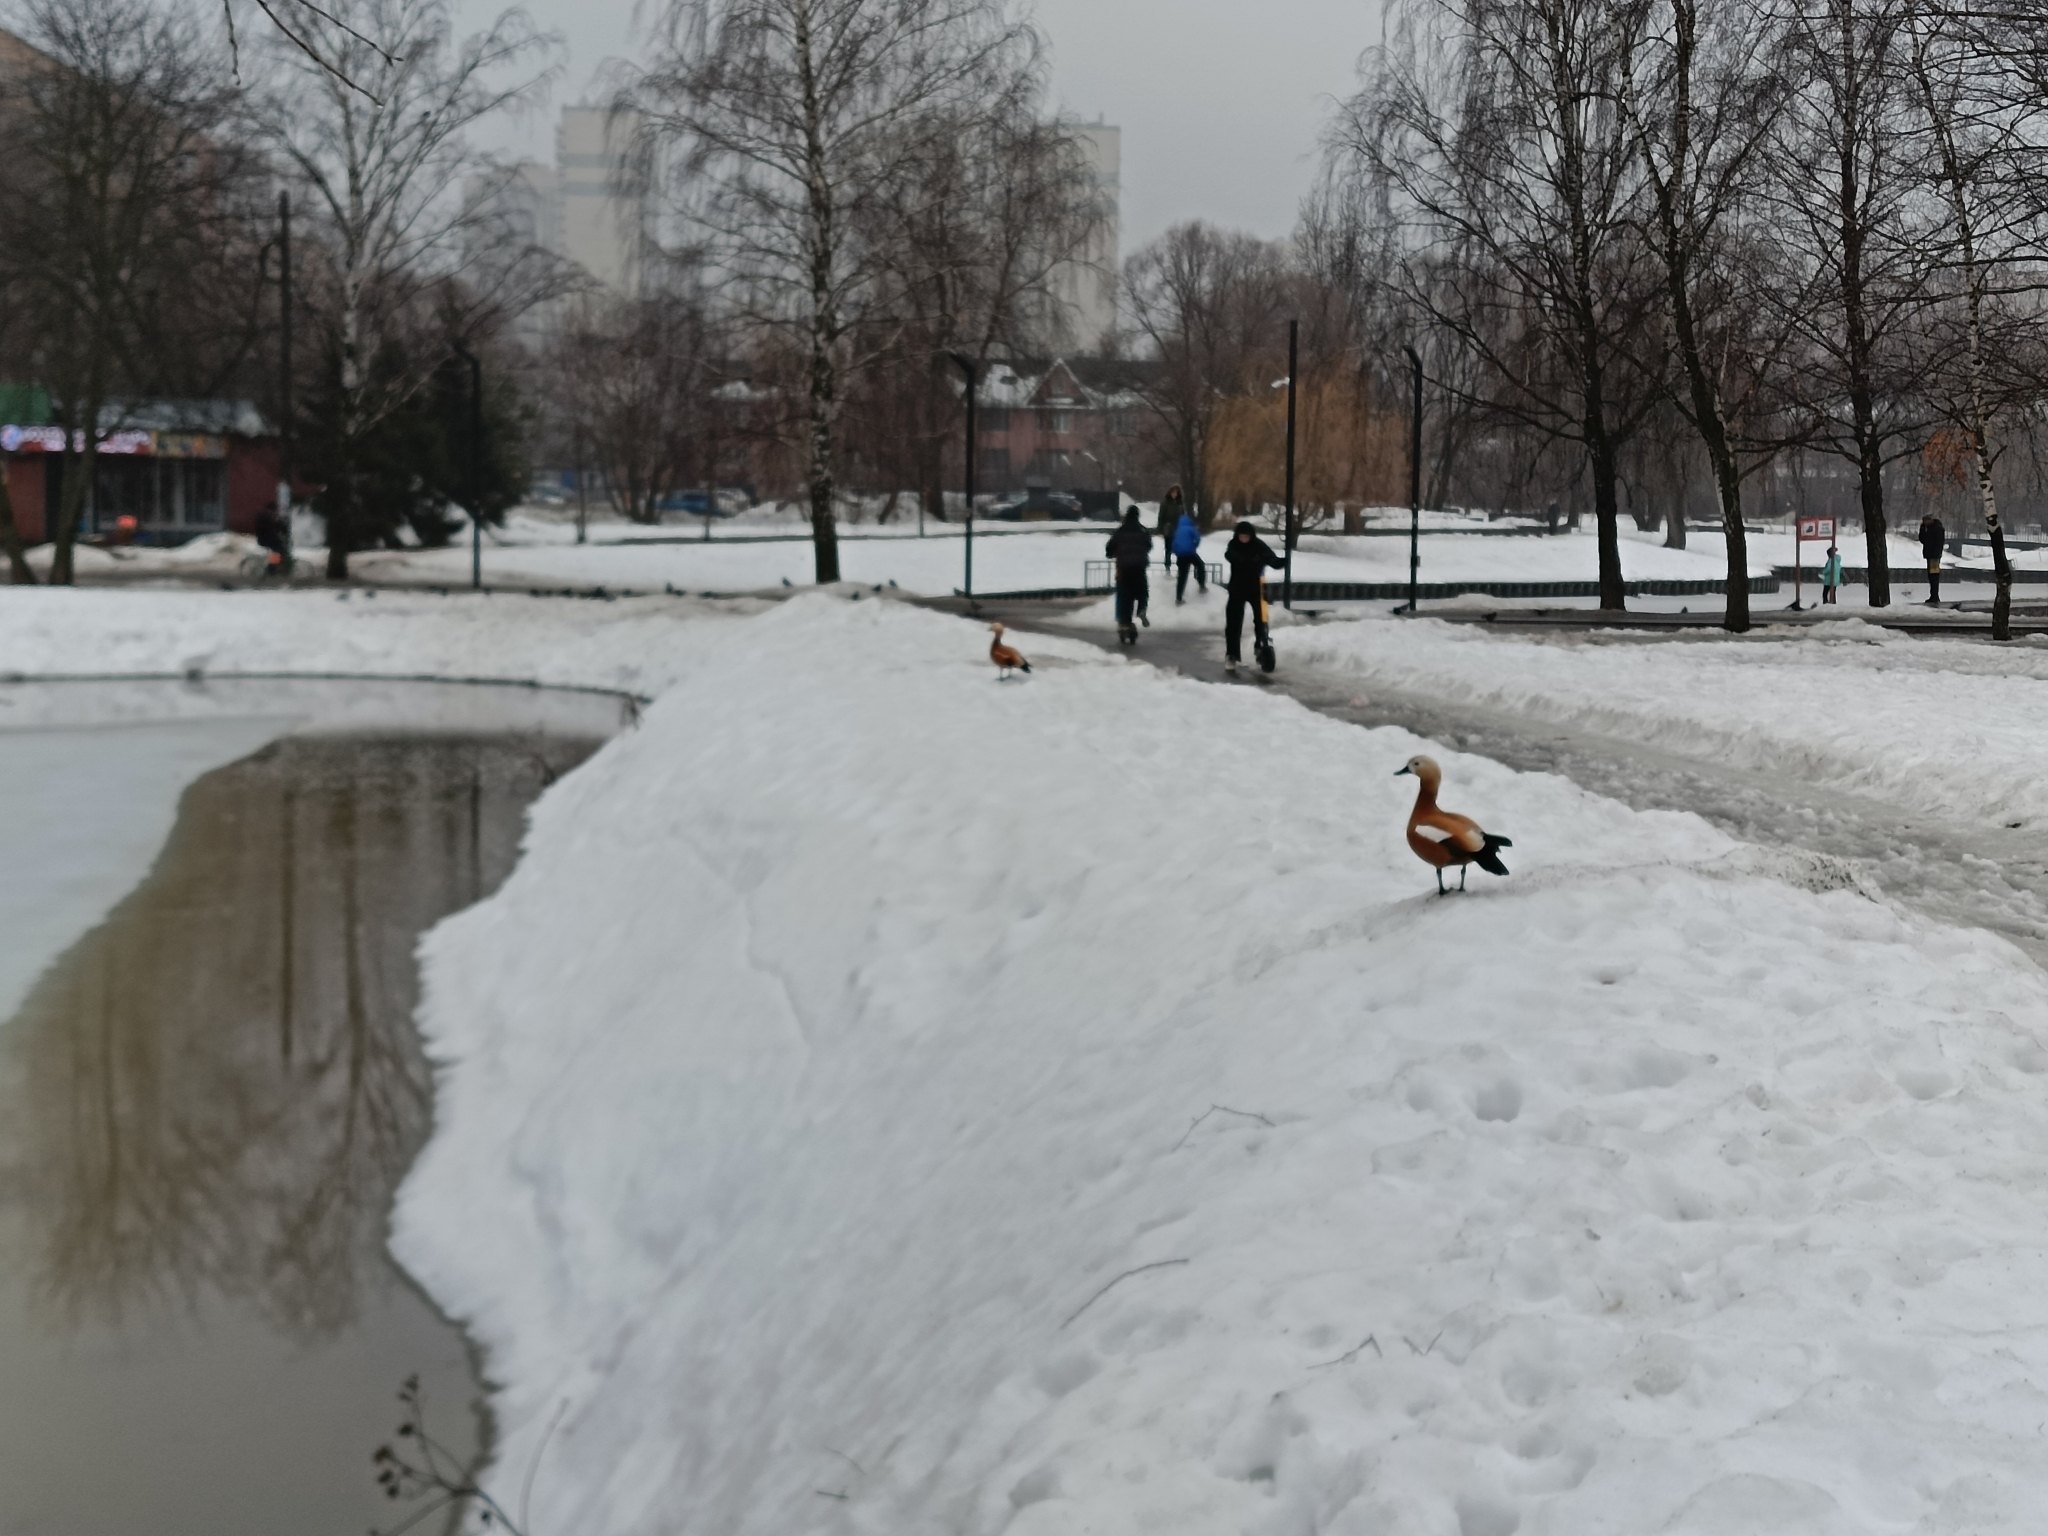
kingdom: Animalia
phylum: Chordata
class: Aves
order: Anseriformes
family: Anatidae
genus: Tadorna
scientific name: Tadorna ferruginea
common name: Ruddy shelduck
